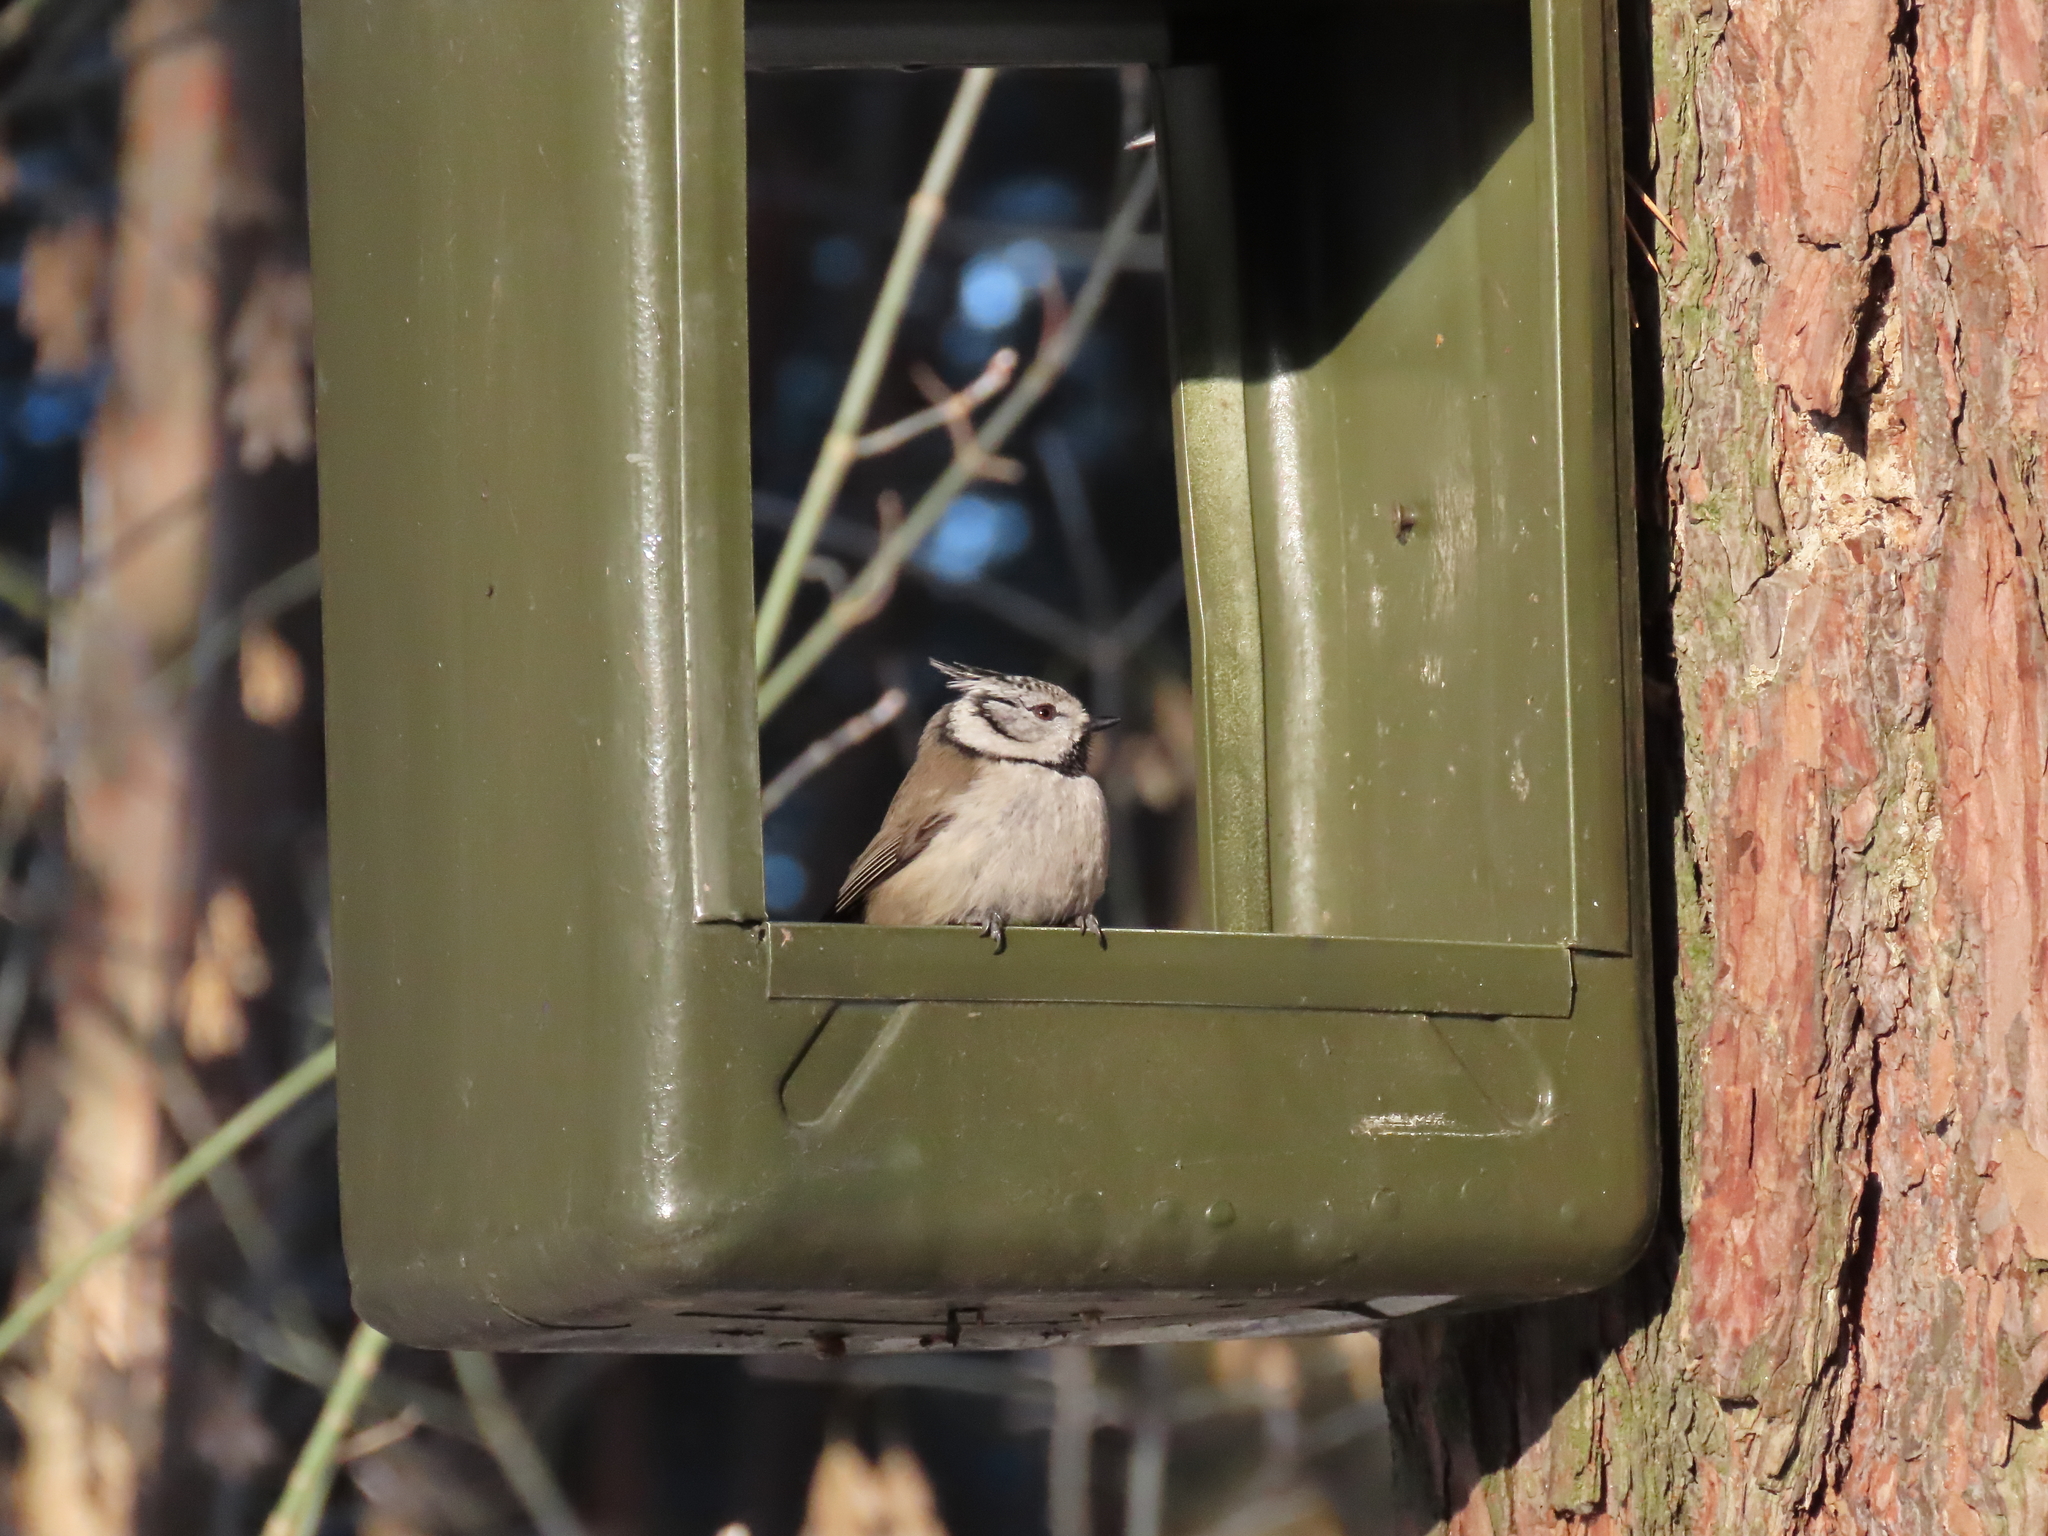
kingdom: Animalia
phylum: Chordata
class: Aves
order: Passeriformes
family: Paridae
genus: Lophophanes
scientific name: Lophophanes cristatus
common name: European crested tit
